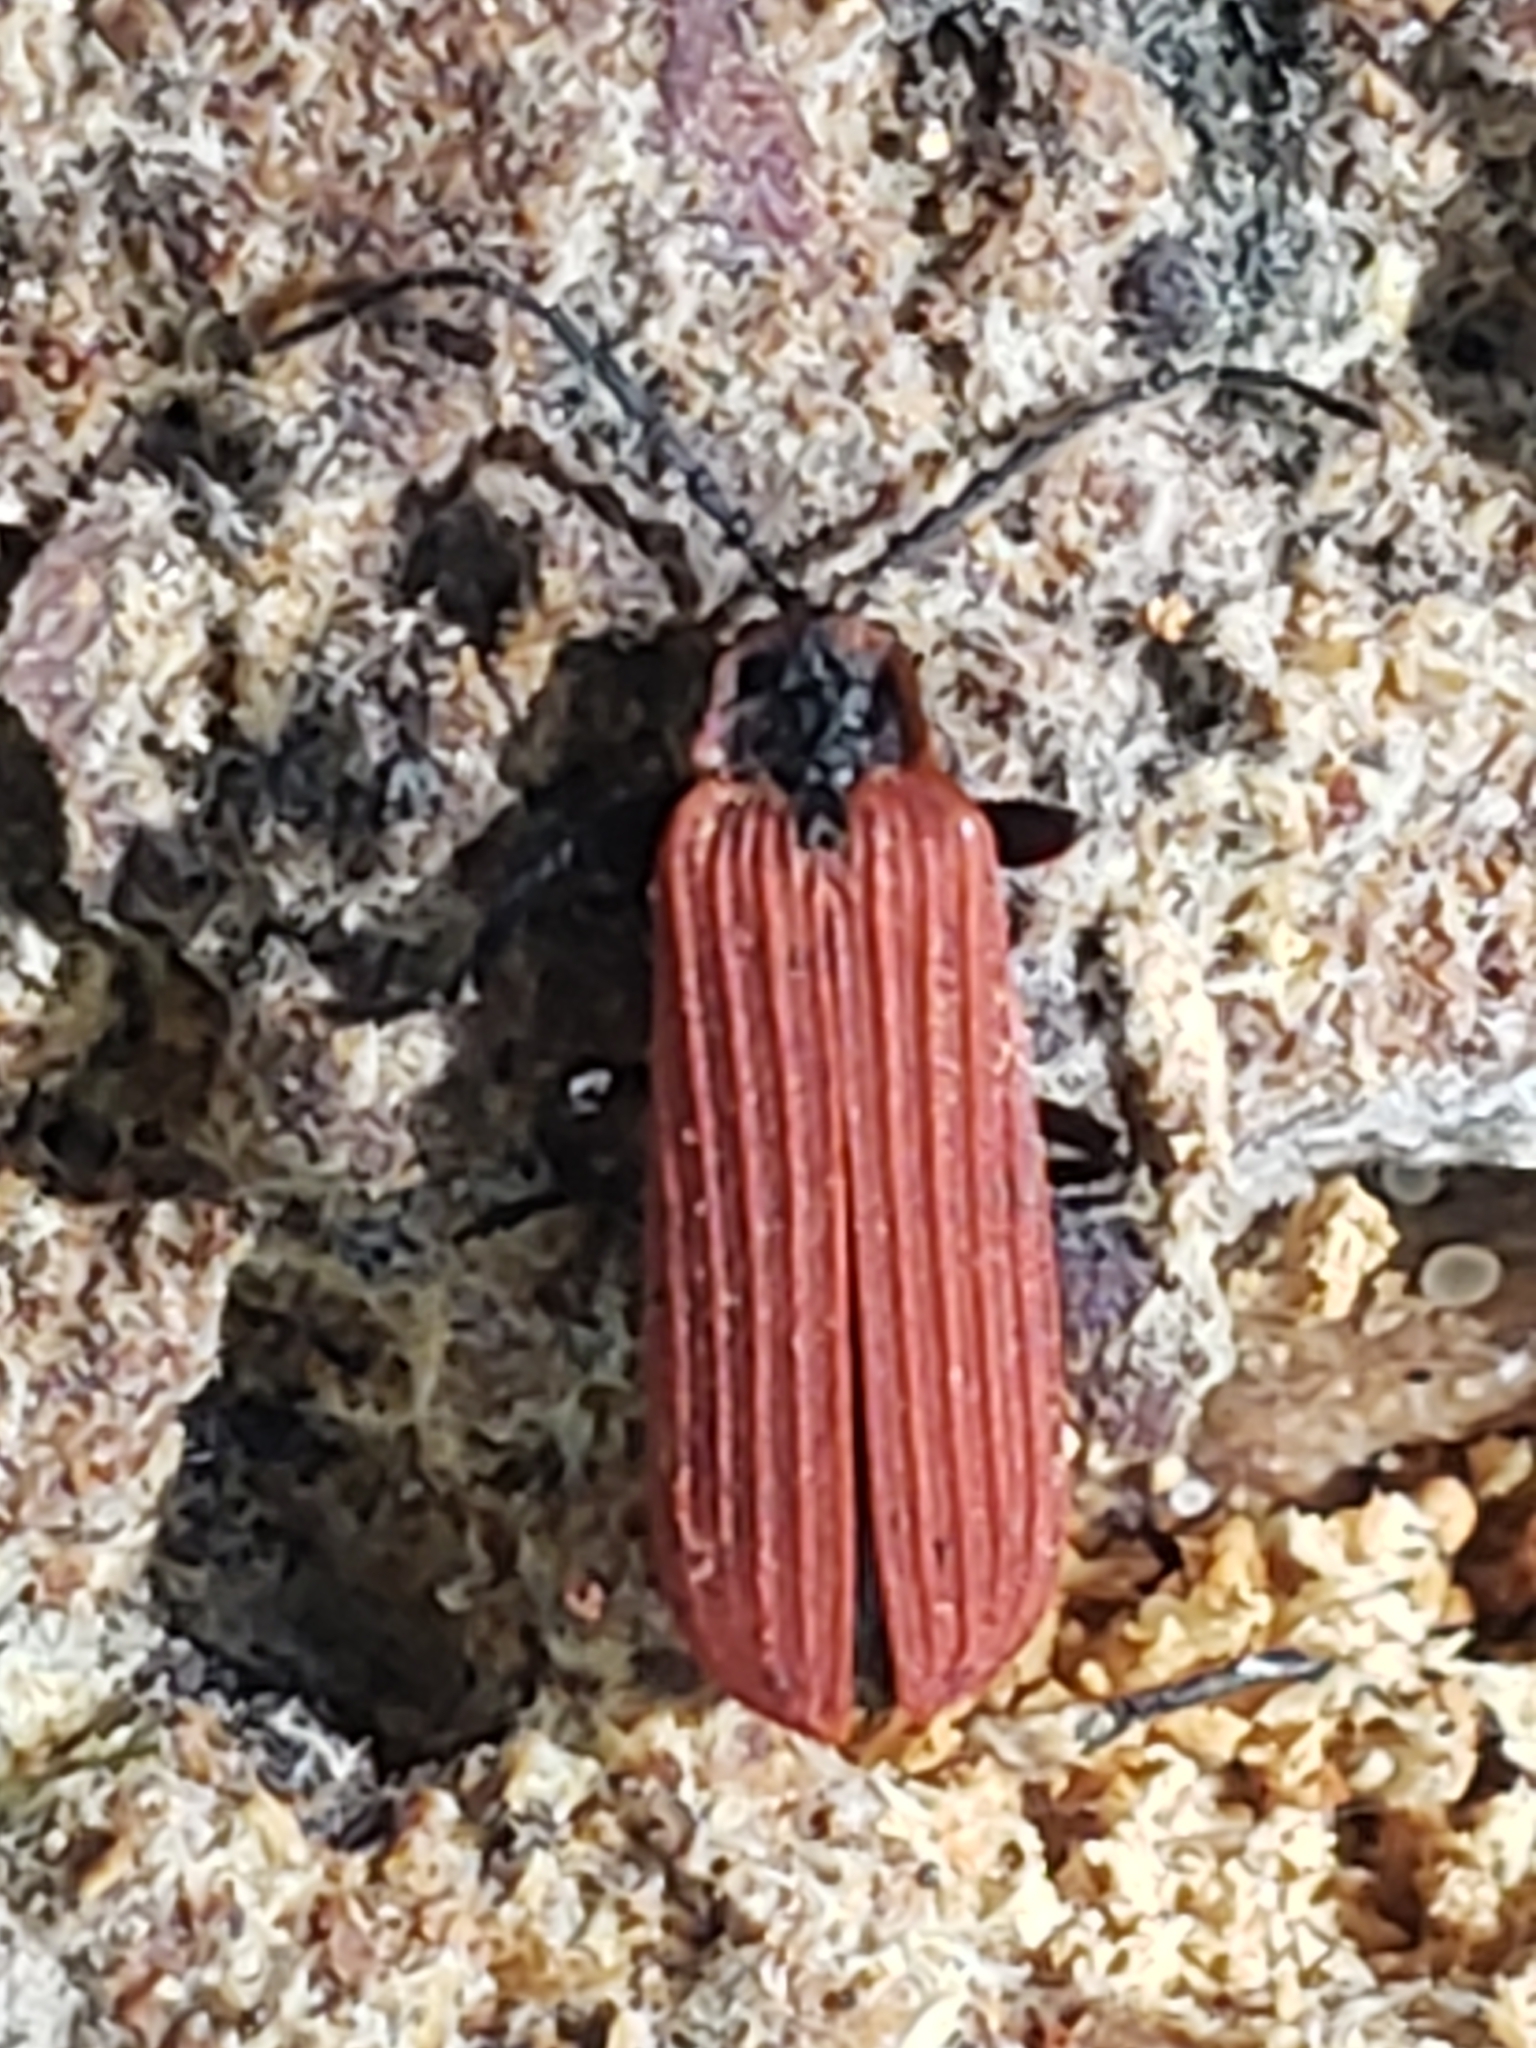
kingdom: Animalia
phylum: Arthropoda
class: Insecta
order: Coleoptera
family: Lycidae
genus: Dictyoptera
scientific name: Dictyoptera aurora
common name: Golden net-winged beetle
